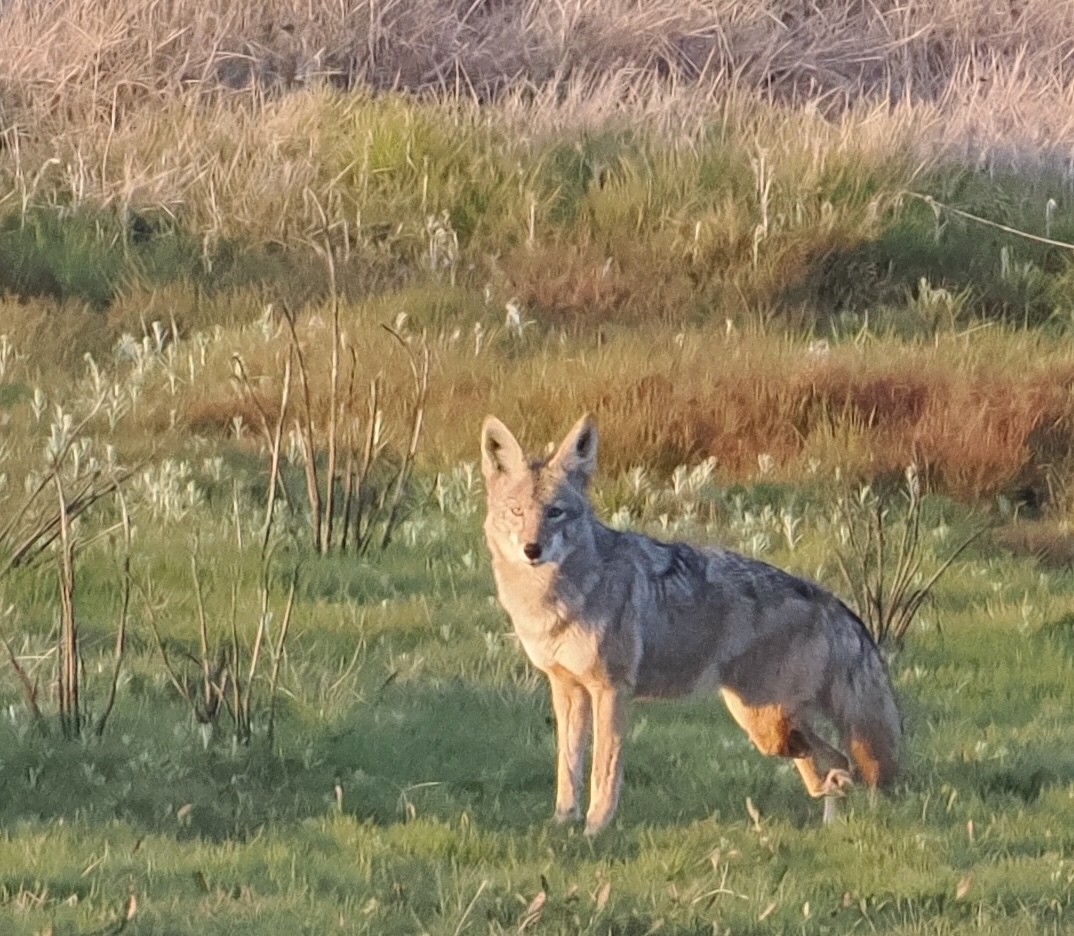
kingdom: Animalia
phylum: Chordata
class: Mammalia
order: Carnivora
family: Canidae
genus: Canis
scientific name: Canis latrans
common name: Coyote
